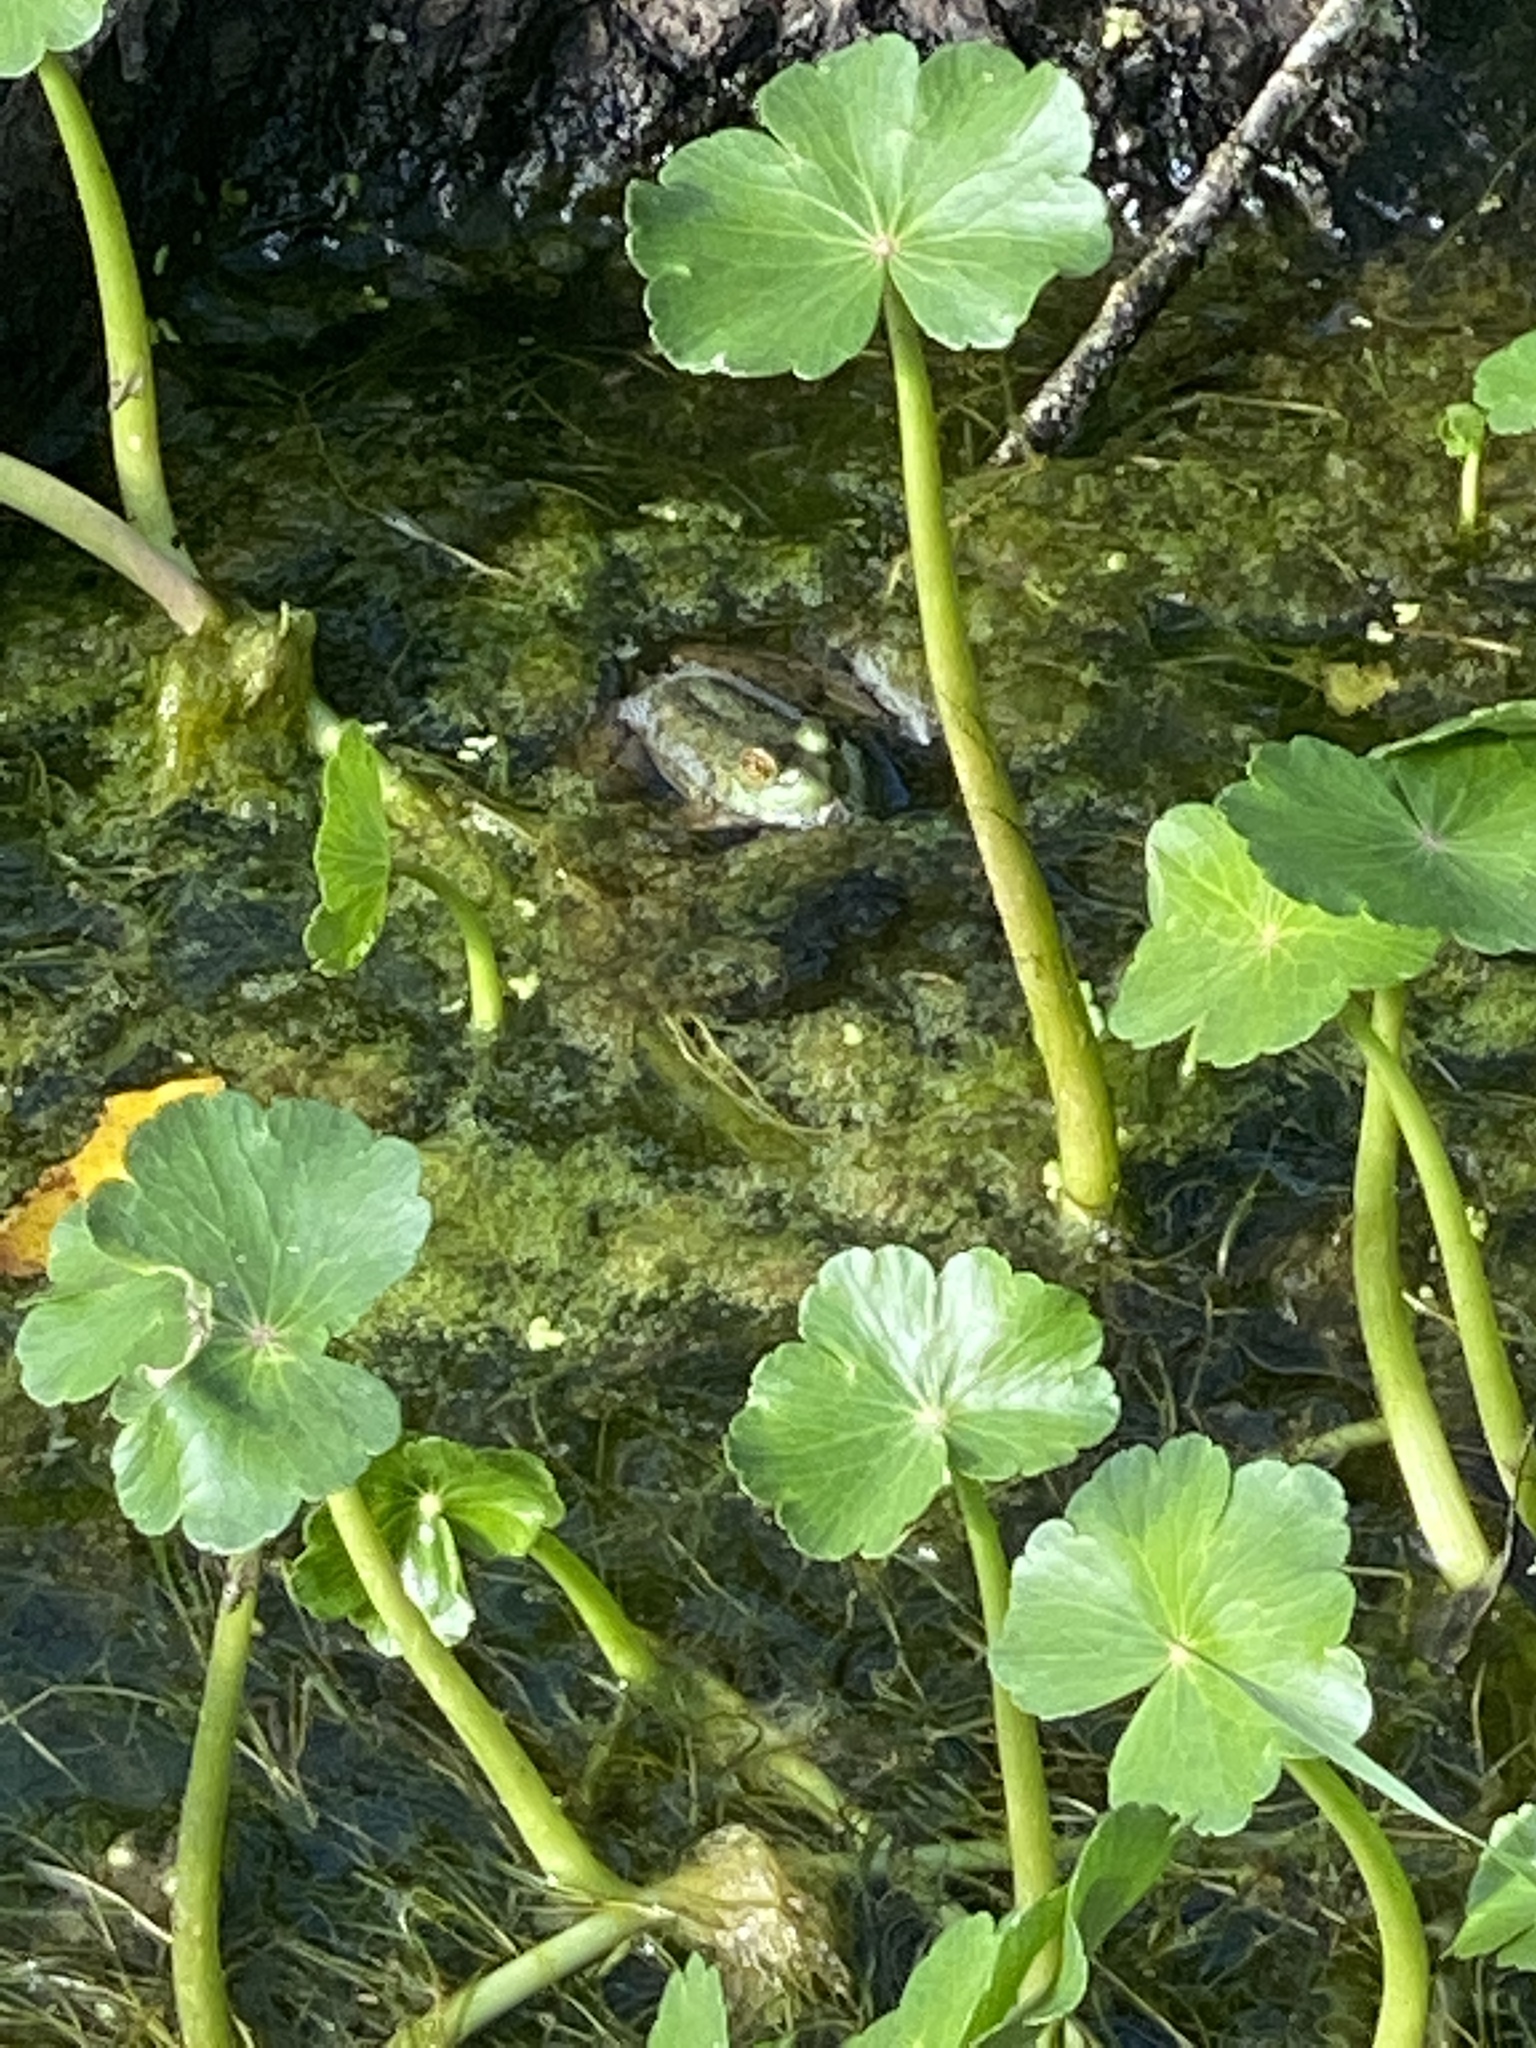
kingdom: Animalia
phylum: Chordata
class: Amphibia
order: Anura
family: Ranidae
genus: Lithobates
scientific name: Lithobates catesbeianus
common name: American bullfrog
